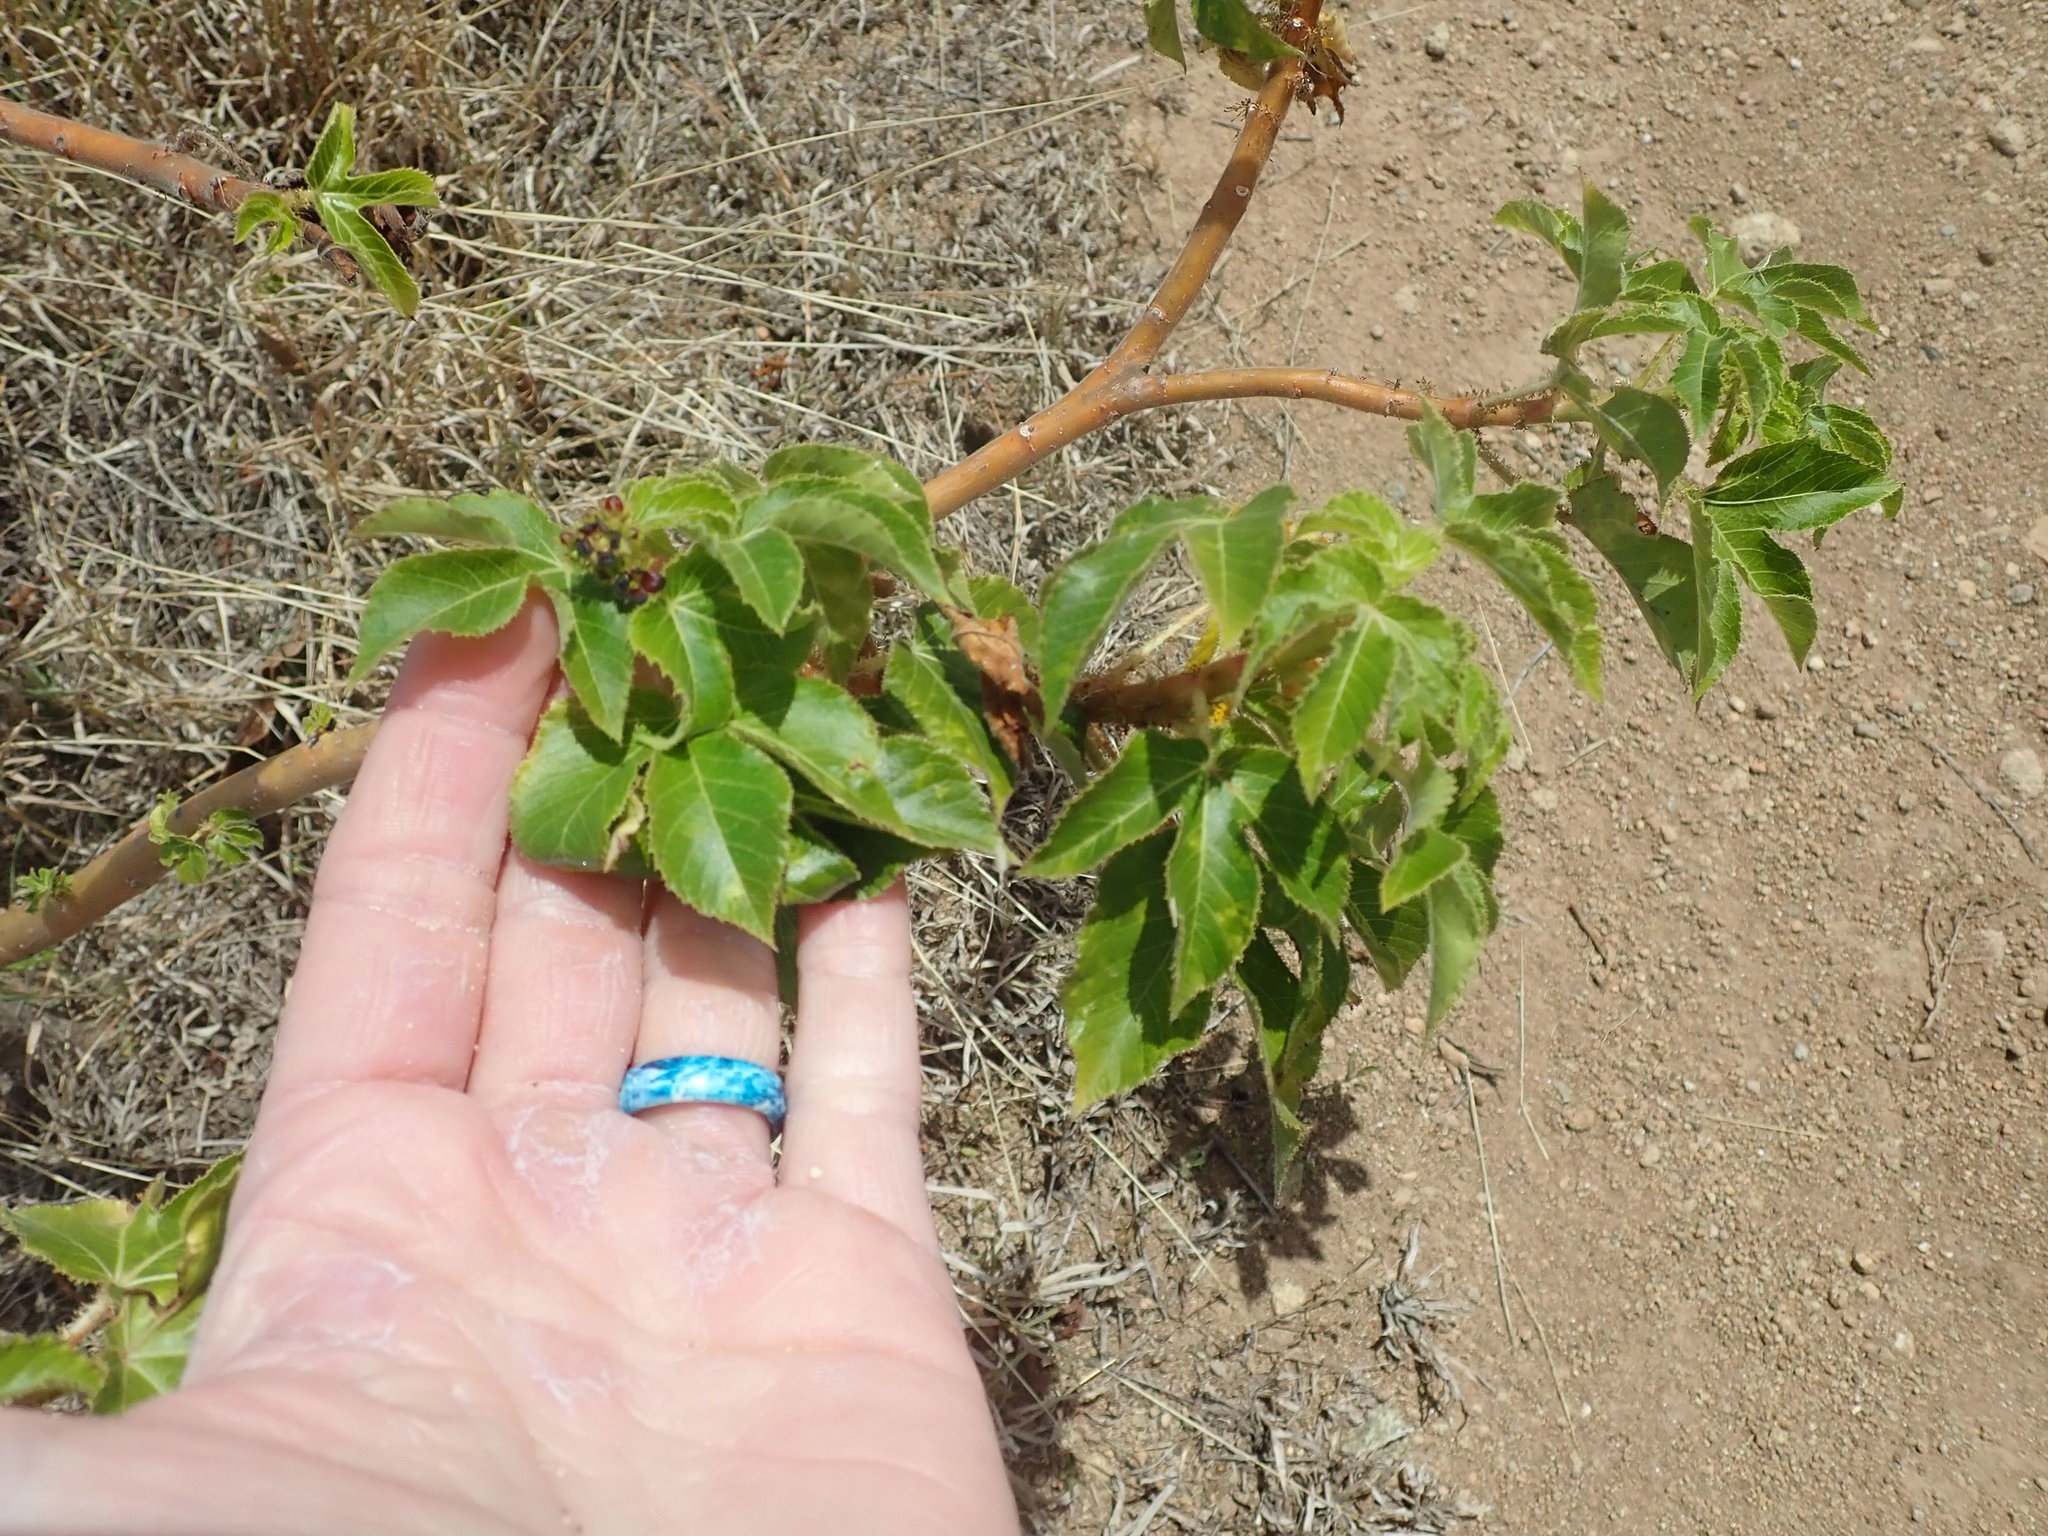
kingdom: Plantae
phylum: Tracheophyta
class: Magnoliopsida
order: Malpighiales
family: Euphorbiaceae
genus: Jatropha
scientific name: Jatropha gossypiifolia
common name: Bellyache bush
